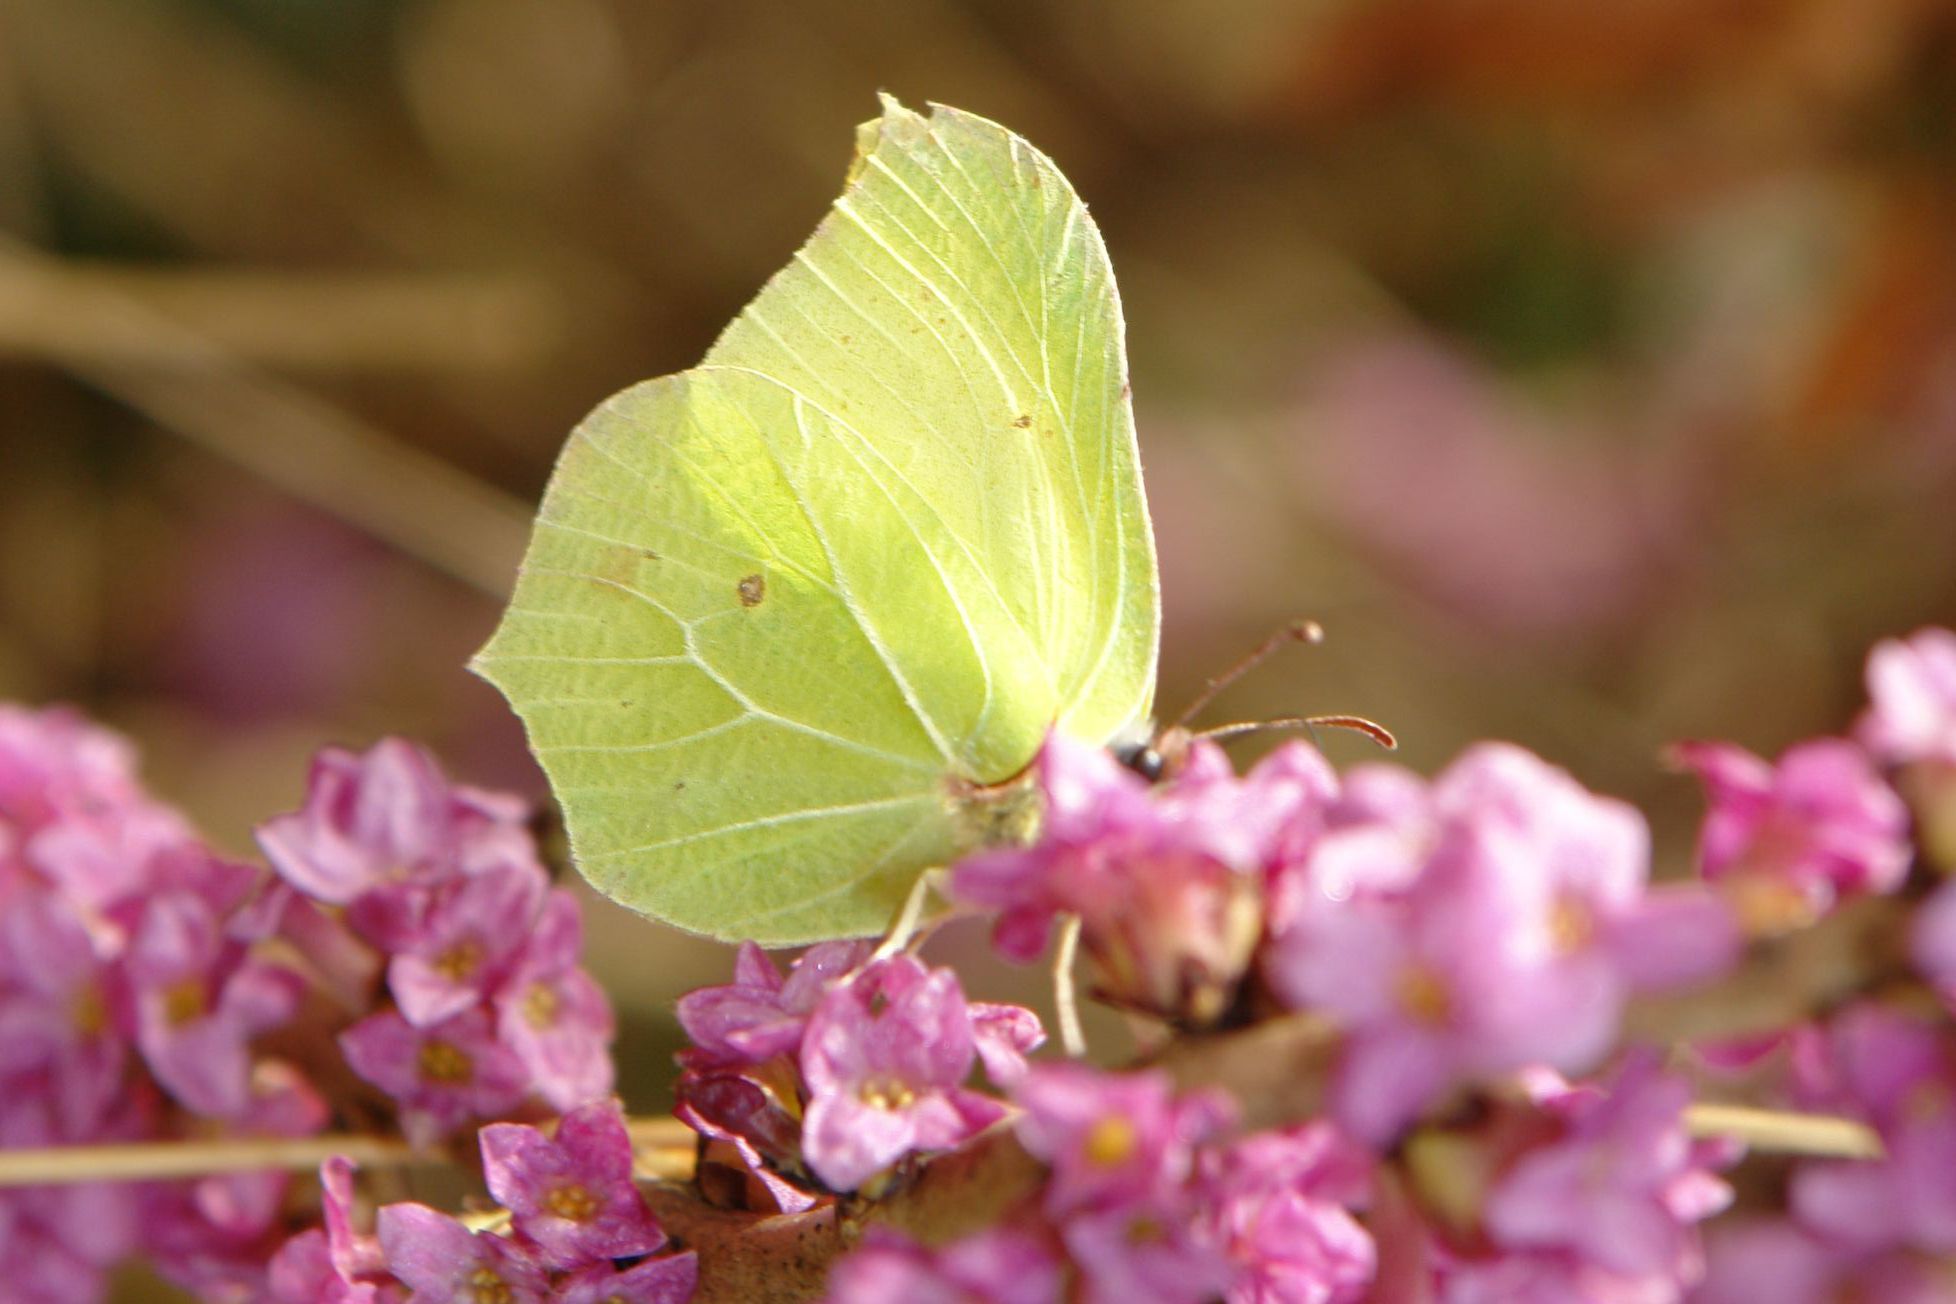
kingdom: Animalia
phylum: Arthropoda
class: Insecta
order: Lepidoptera
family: Pieridae
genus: Gonepteryx
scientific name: Gonepteryx rhamni
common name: Brimstone
